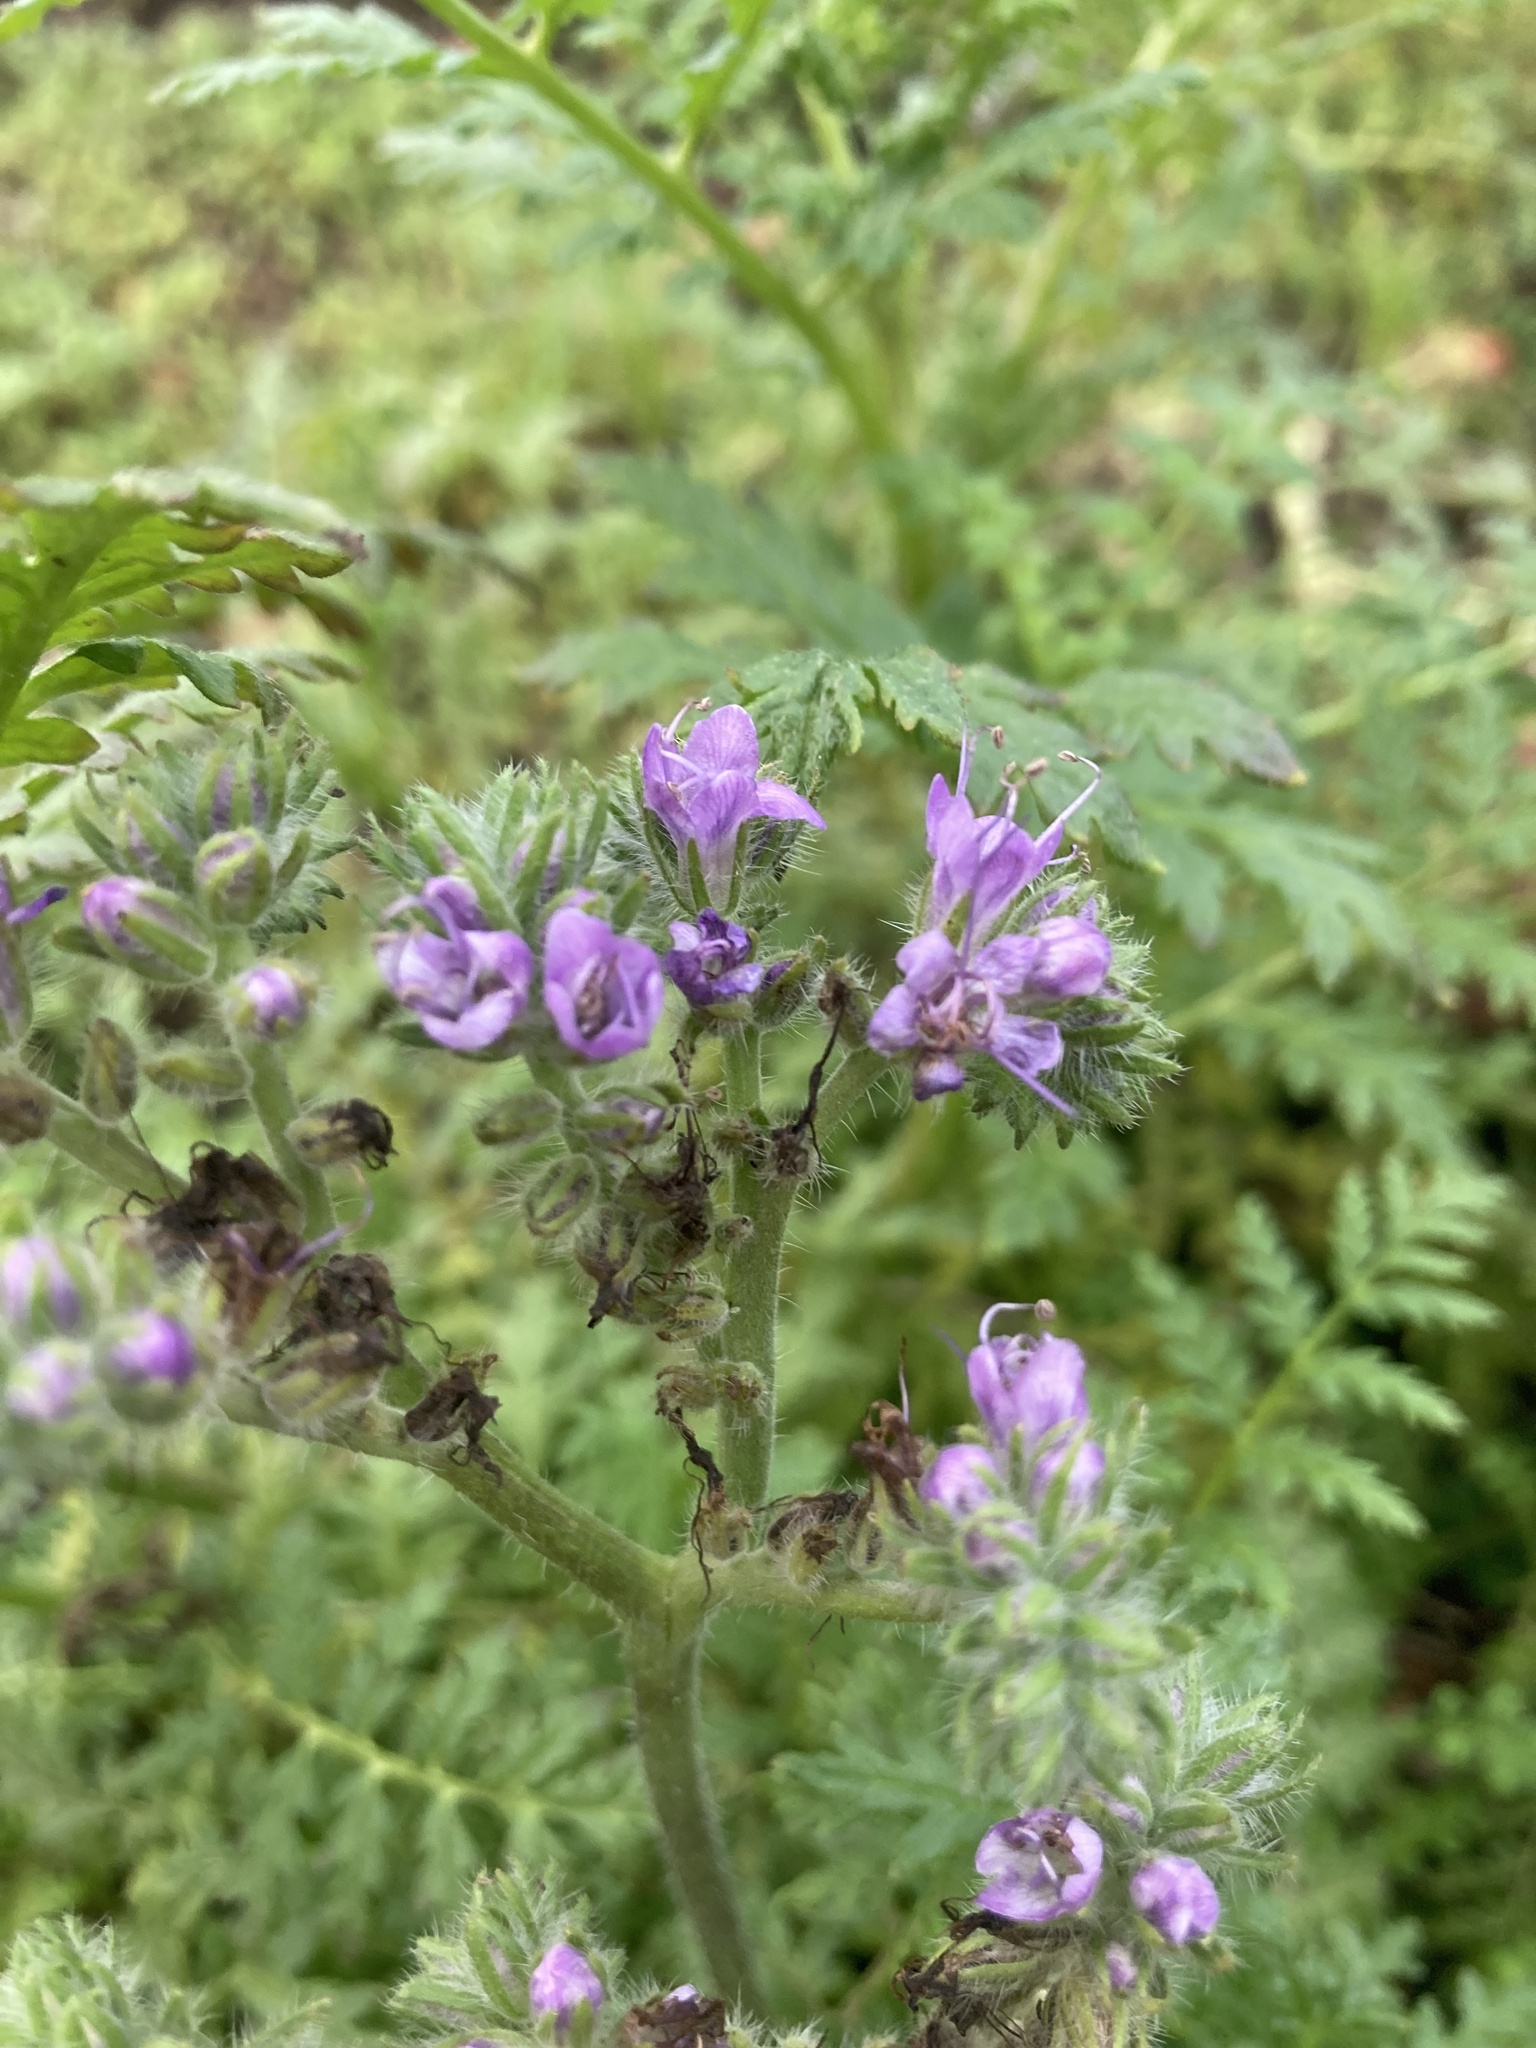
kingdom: Plantae
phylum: Tracheophyta
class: Magnoliopsida
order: Boraginales
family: Hydrophyllaceae
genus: Phacelia
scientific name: Phacelia tanacetifolia
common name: Phacelia
